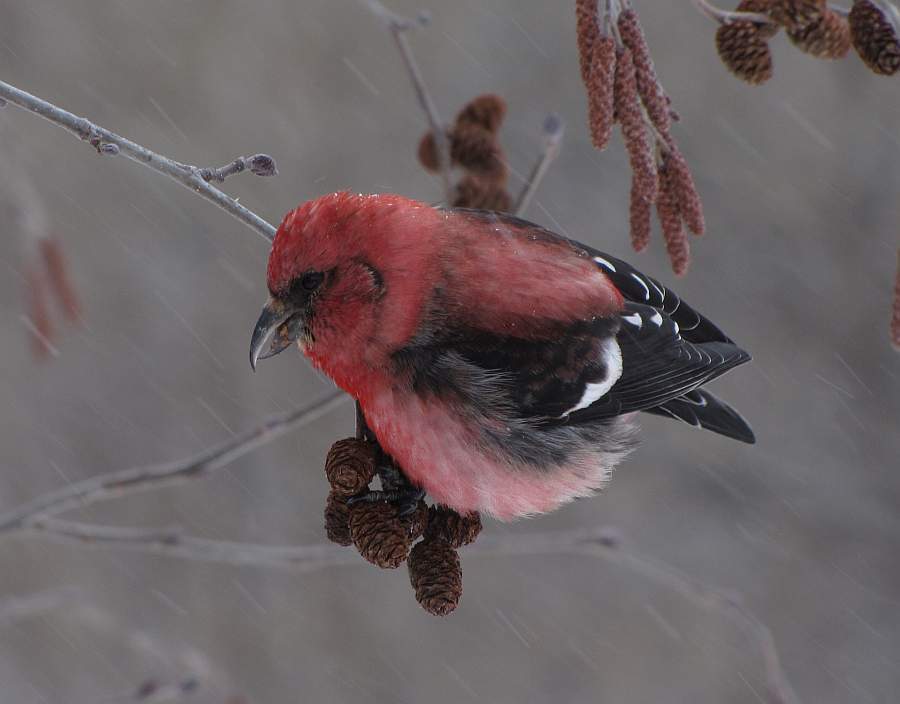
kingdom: Animalia
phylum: Chordata
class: Aves
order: Passeriformes
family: Fringillidae
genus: Loxia
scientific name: Loxia leucoptera
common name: Two-barred crossbill
